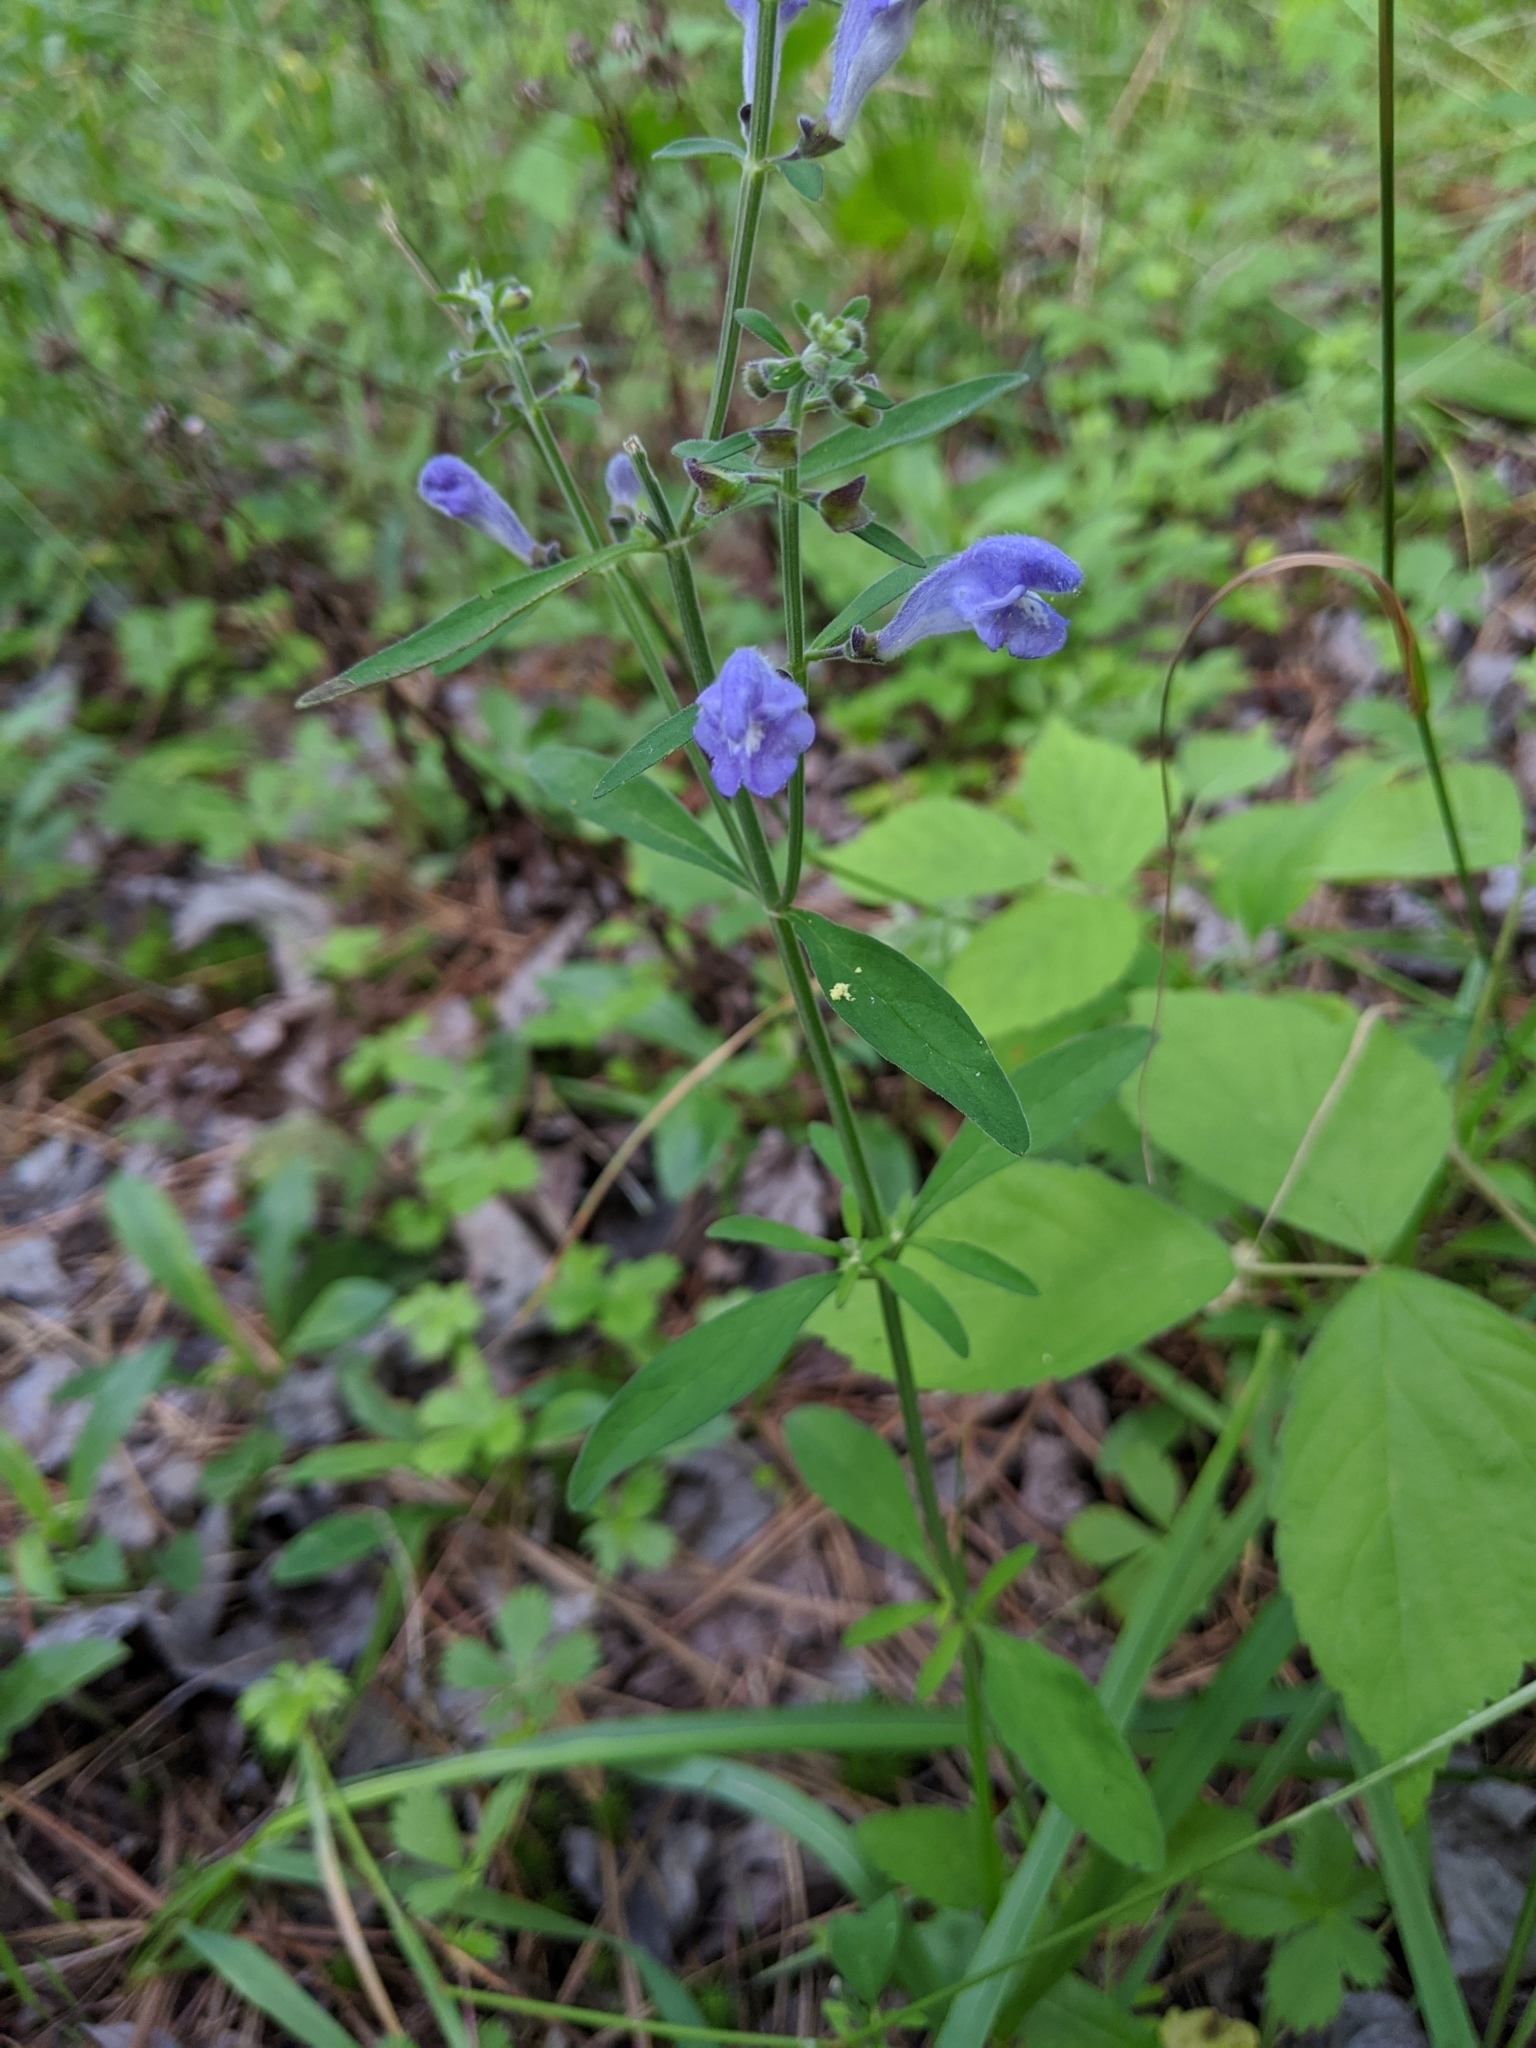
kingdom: Plantae
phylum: Tracheophyta
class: Magnoliopsida
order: Lamiales
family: Lamiaceae
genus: Scutellaria
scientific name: Scutellaria integrifolia
